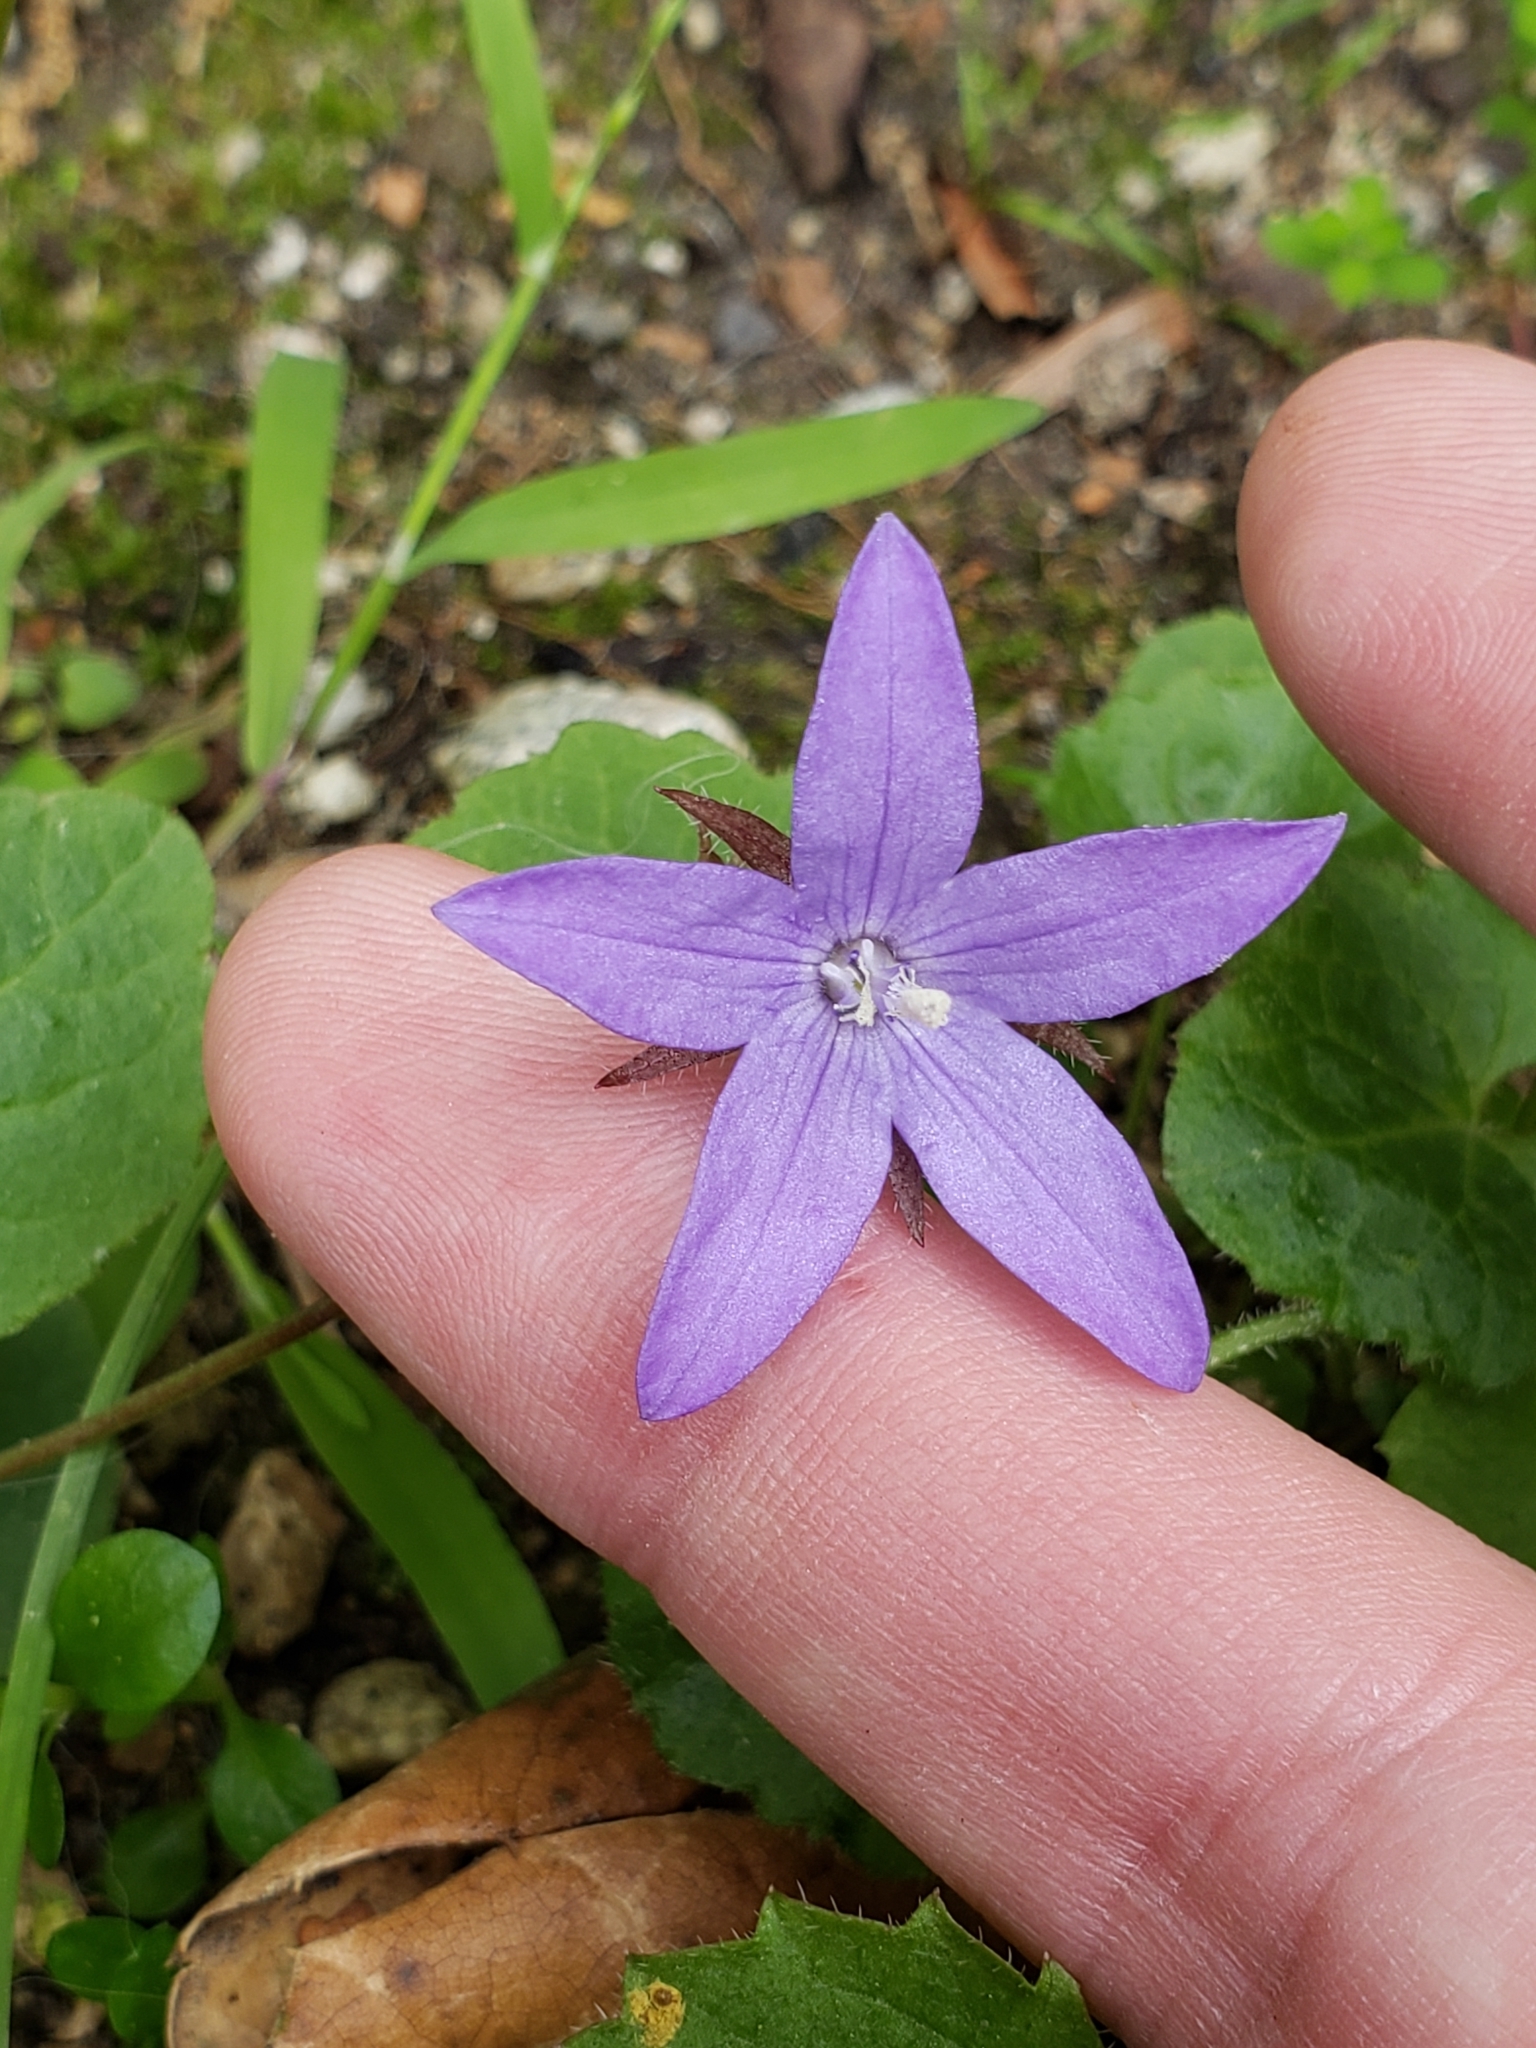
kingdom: Plantae
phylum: Tracheophyta
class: Magnoliopsida
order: Asterales
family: Campanulaceae
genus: Campanula
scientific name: Campanula poscharskyana
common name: Trailing bellflower
